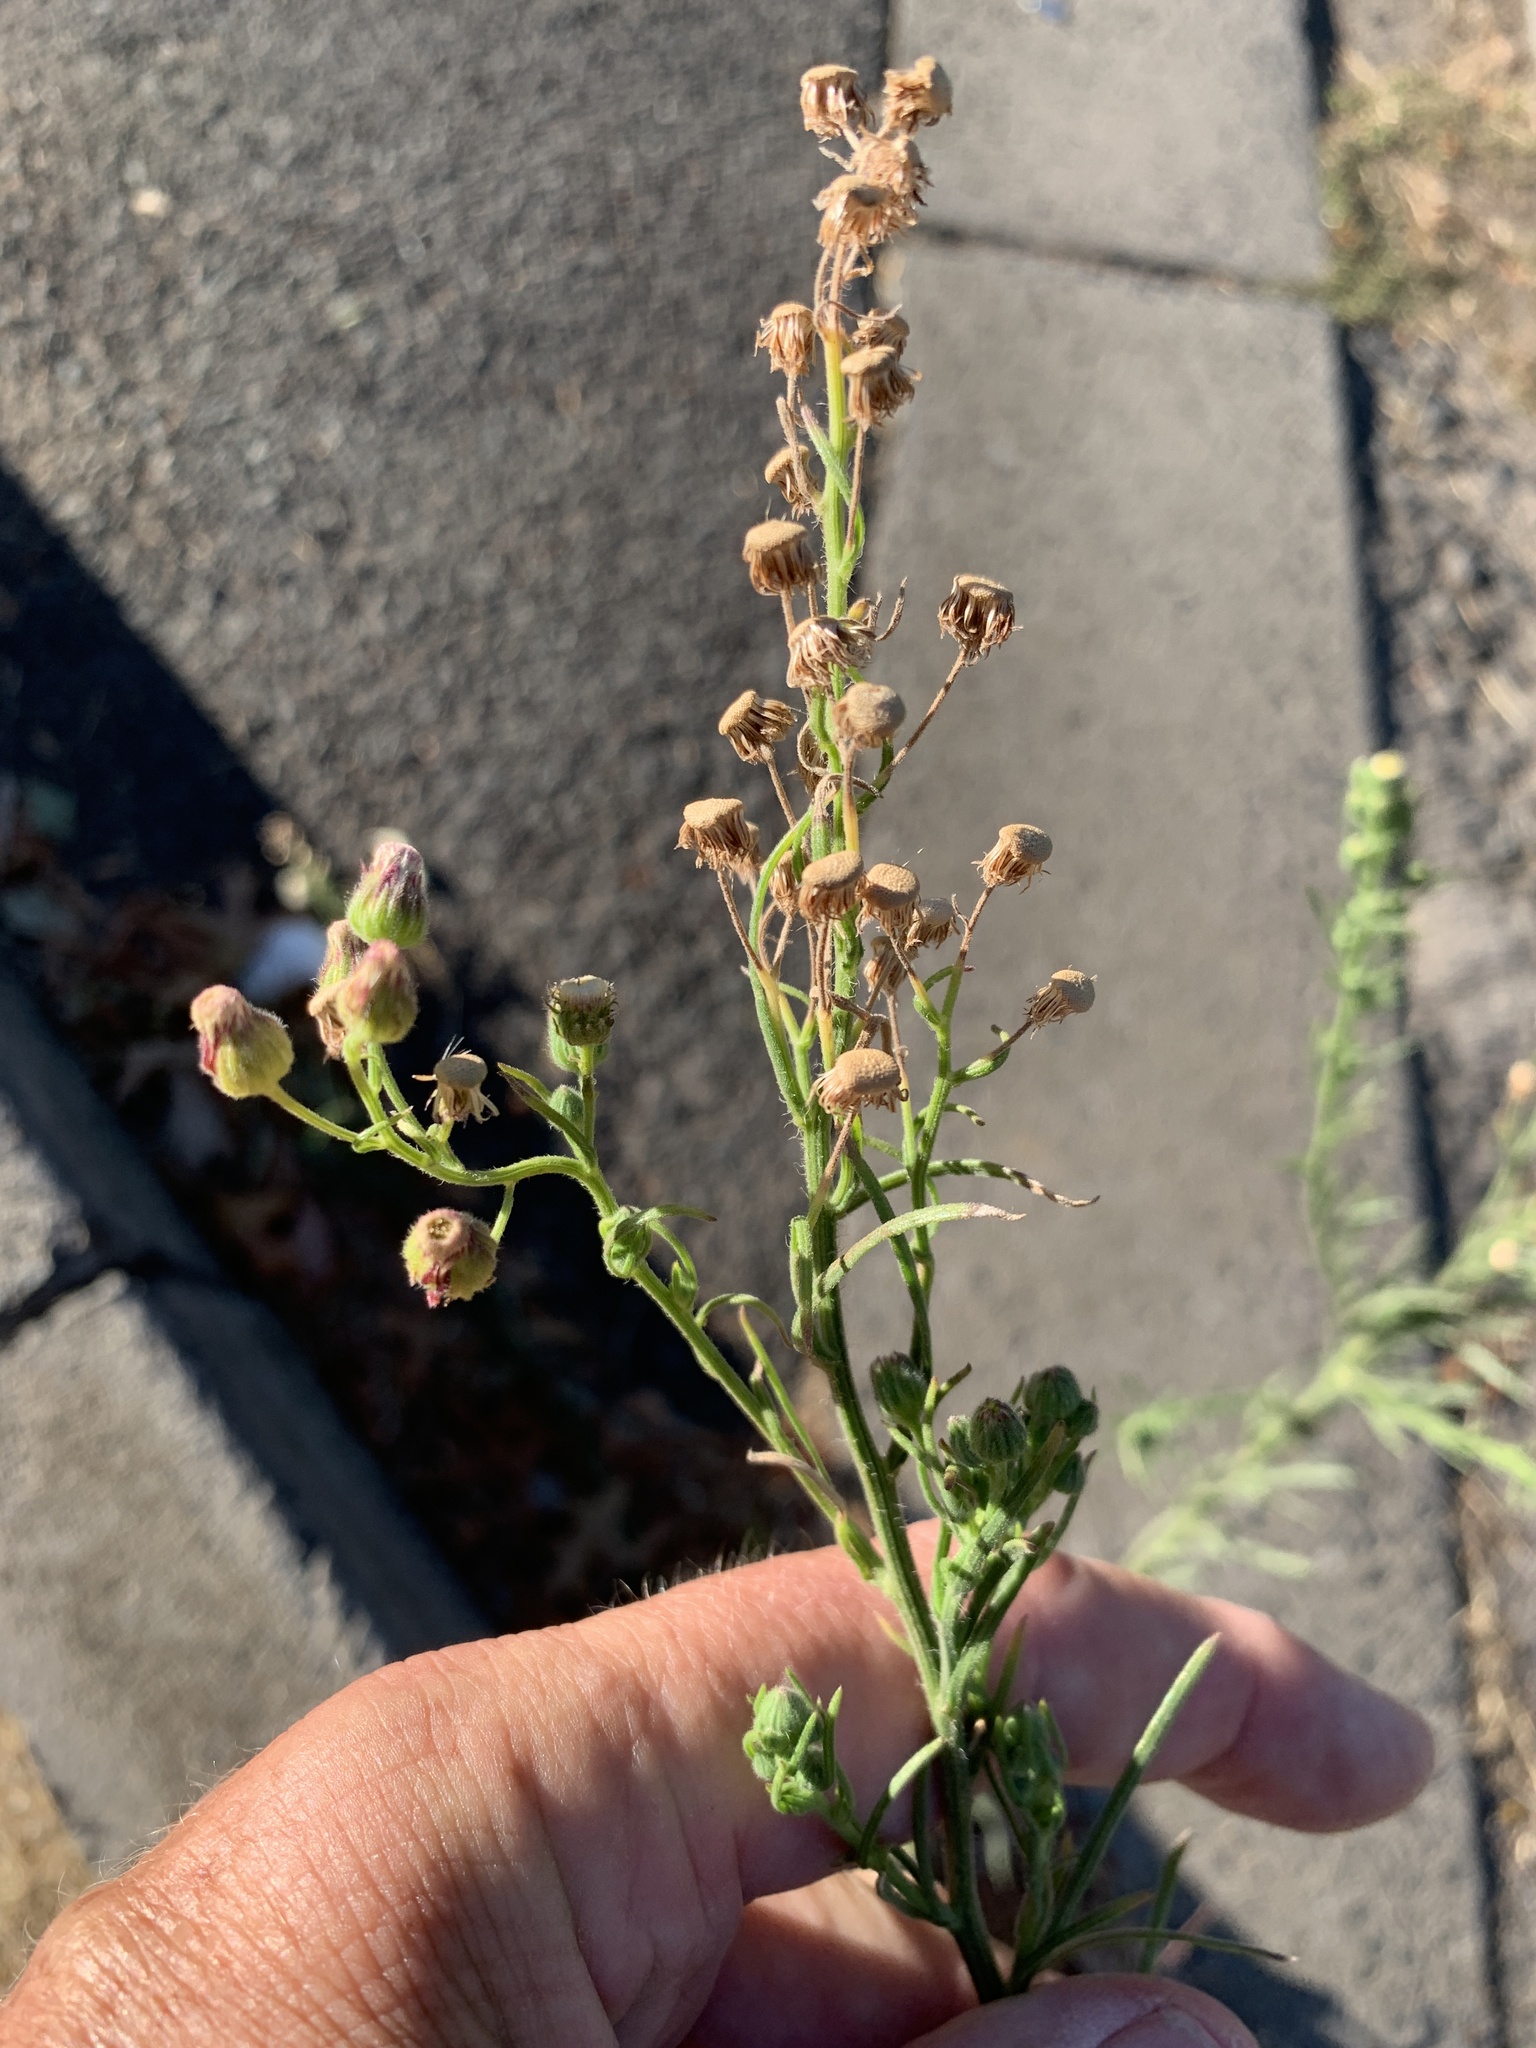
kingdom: Plantae
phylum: Tracheophyta
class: Magnoliopsida
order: Asterales
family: Asteraceae
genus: Erigeron
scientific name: Erigeron bonariensis
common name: Argentine fleabane
